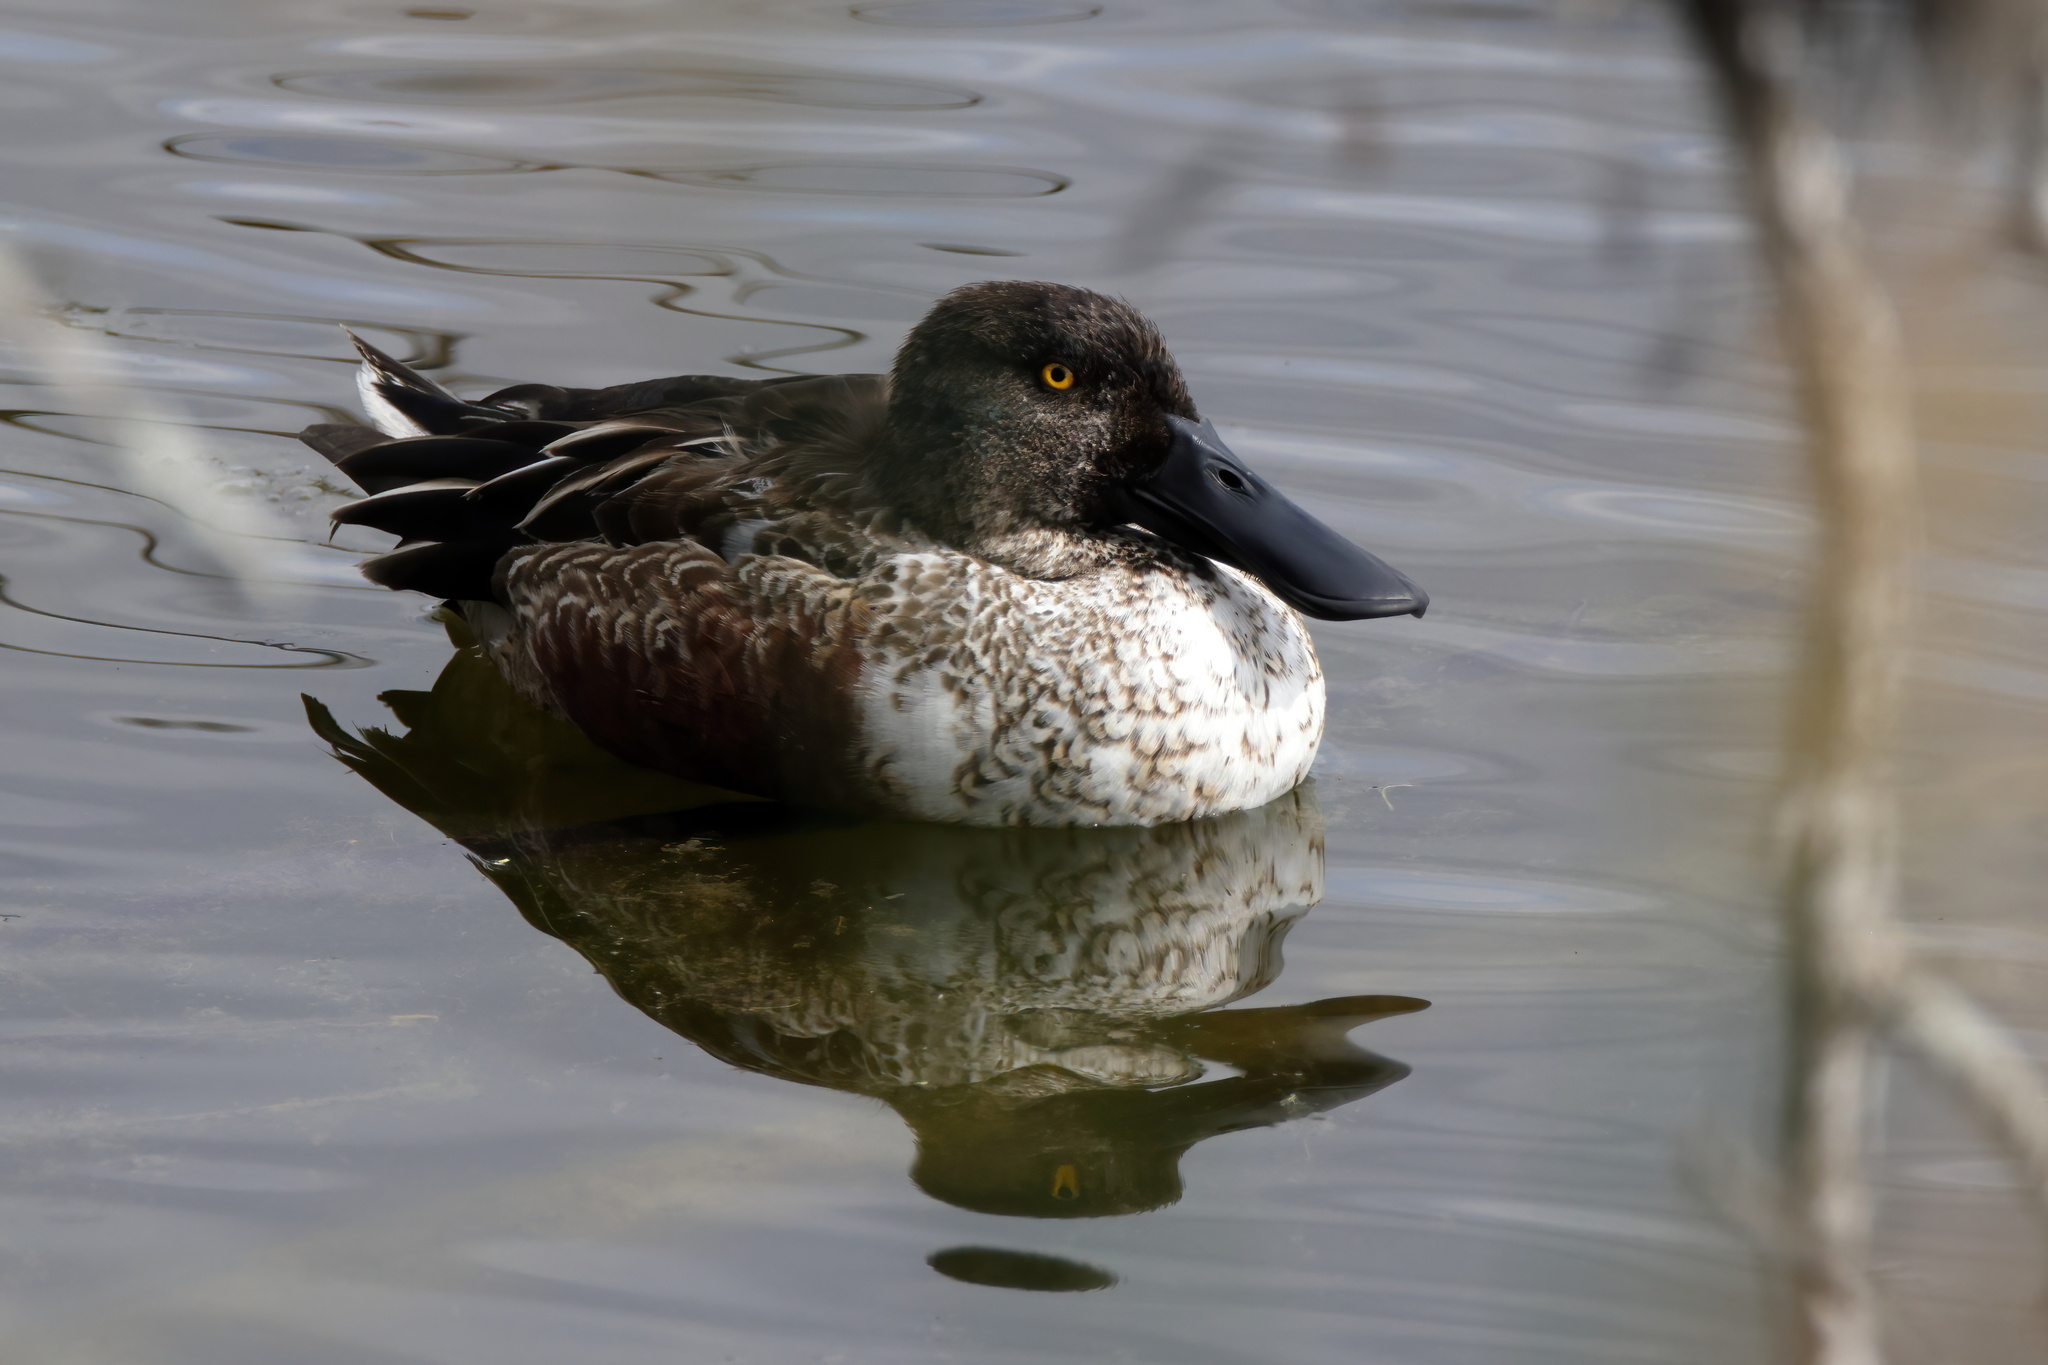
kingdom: Animalia
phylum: Chordata
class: Aves
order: Anseriformes
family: Anatidae
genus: Spatula
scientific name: Spatula clypeata
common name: Northern shoveler
